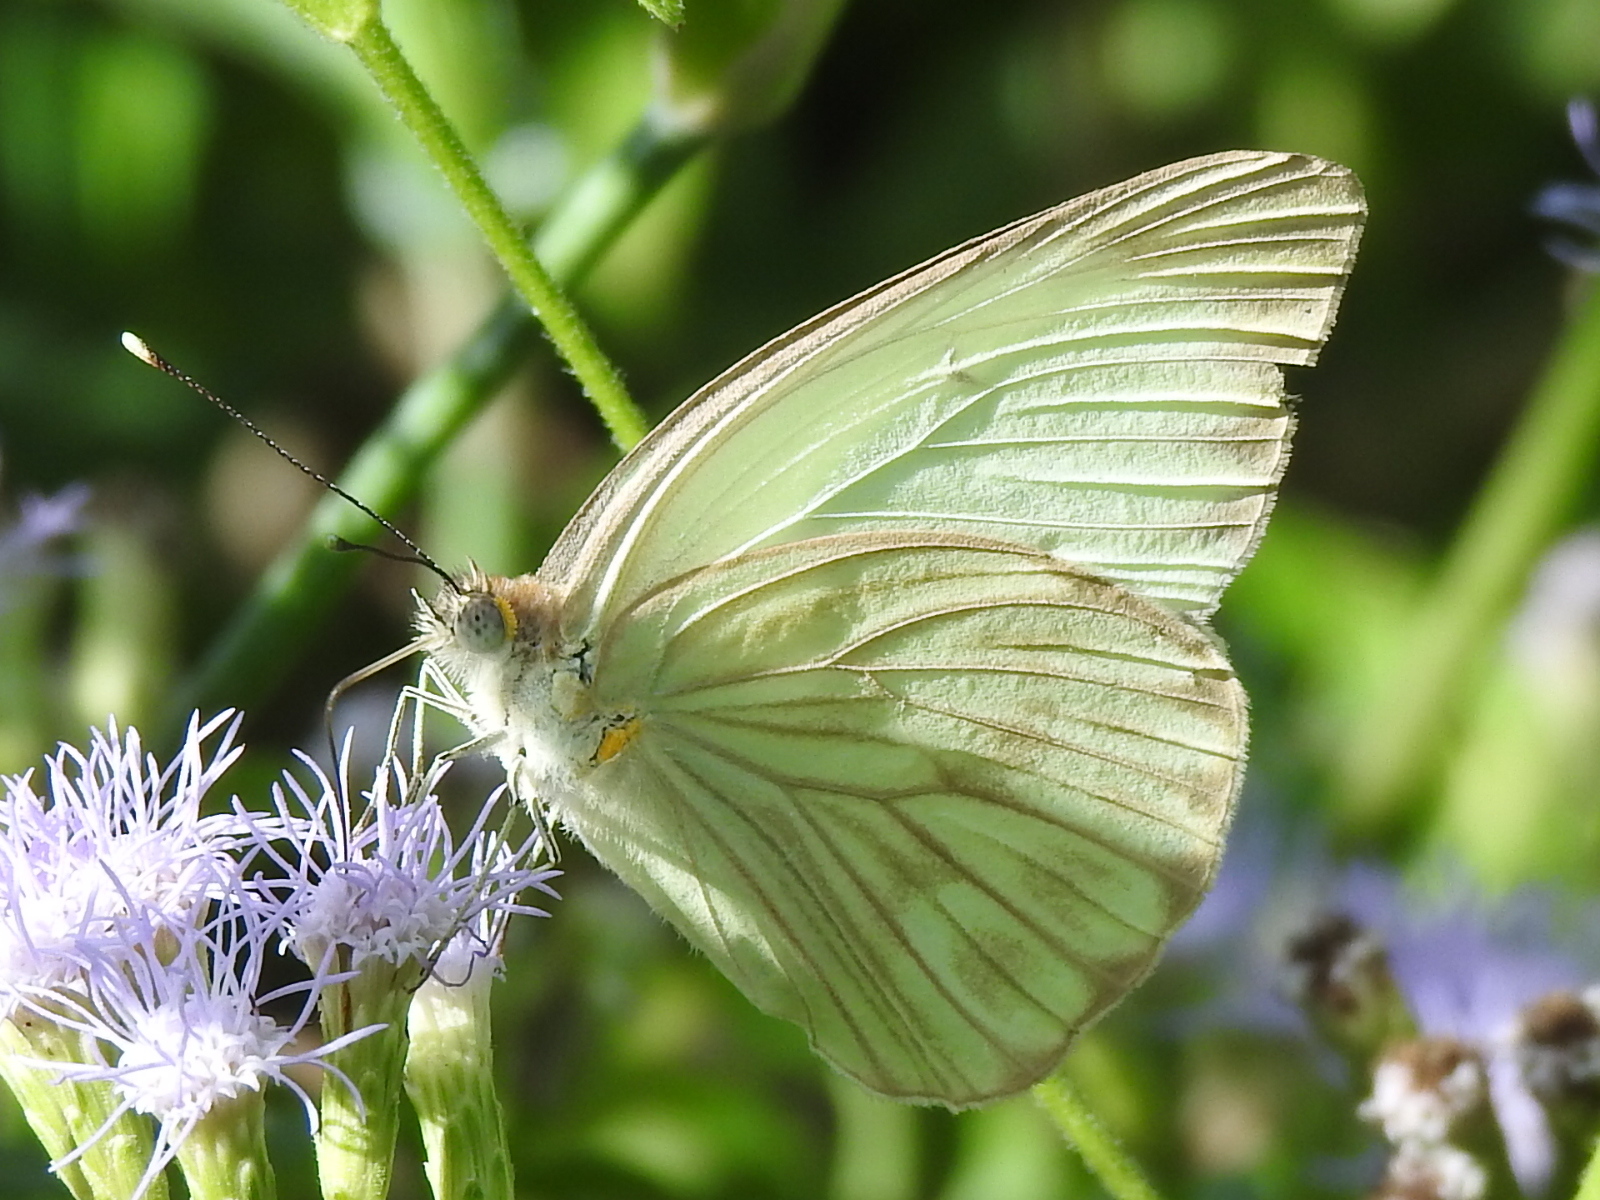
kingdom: Animalia
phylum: Arthropoda
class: Insecta
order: Lepidoptera
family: Pieridae
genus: Ascia
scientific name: Ascia monuste
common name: Great southern white
